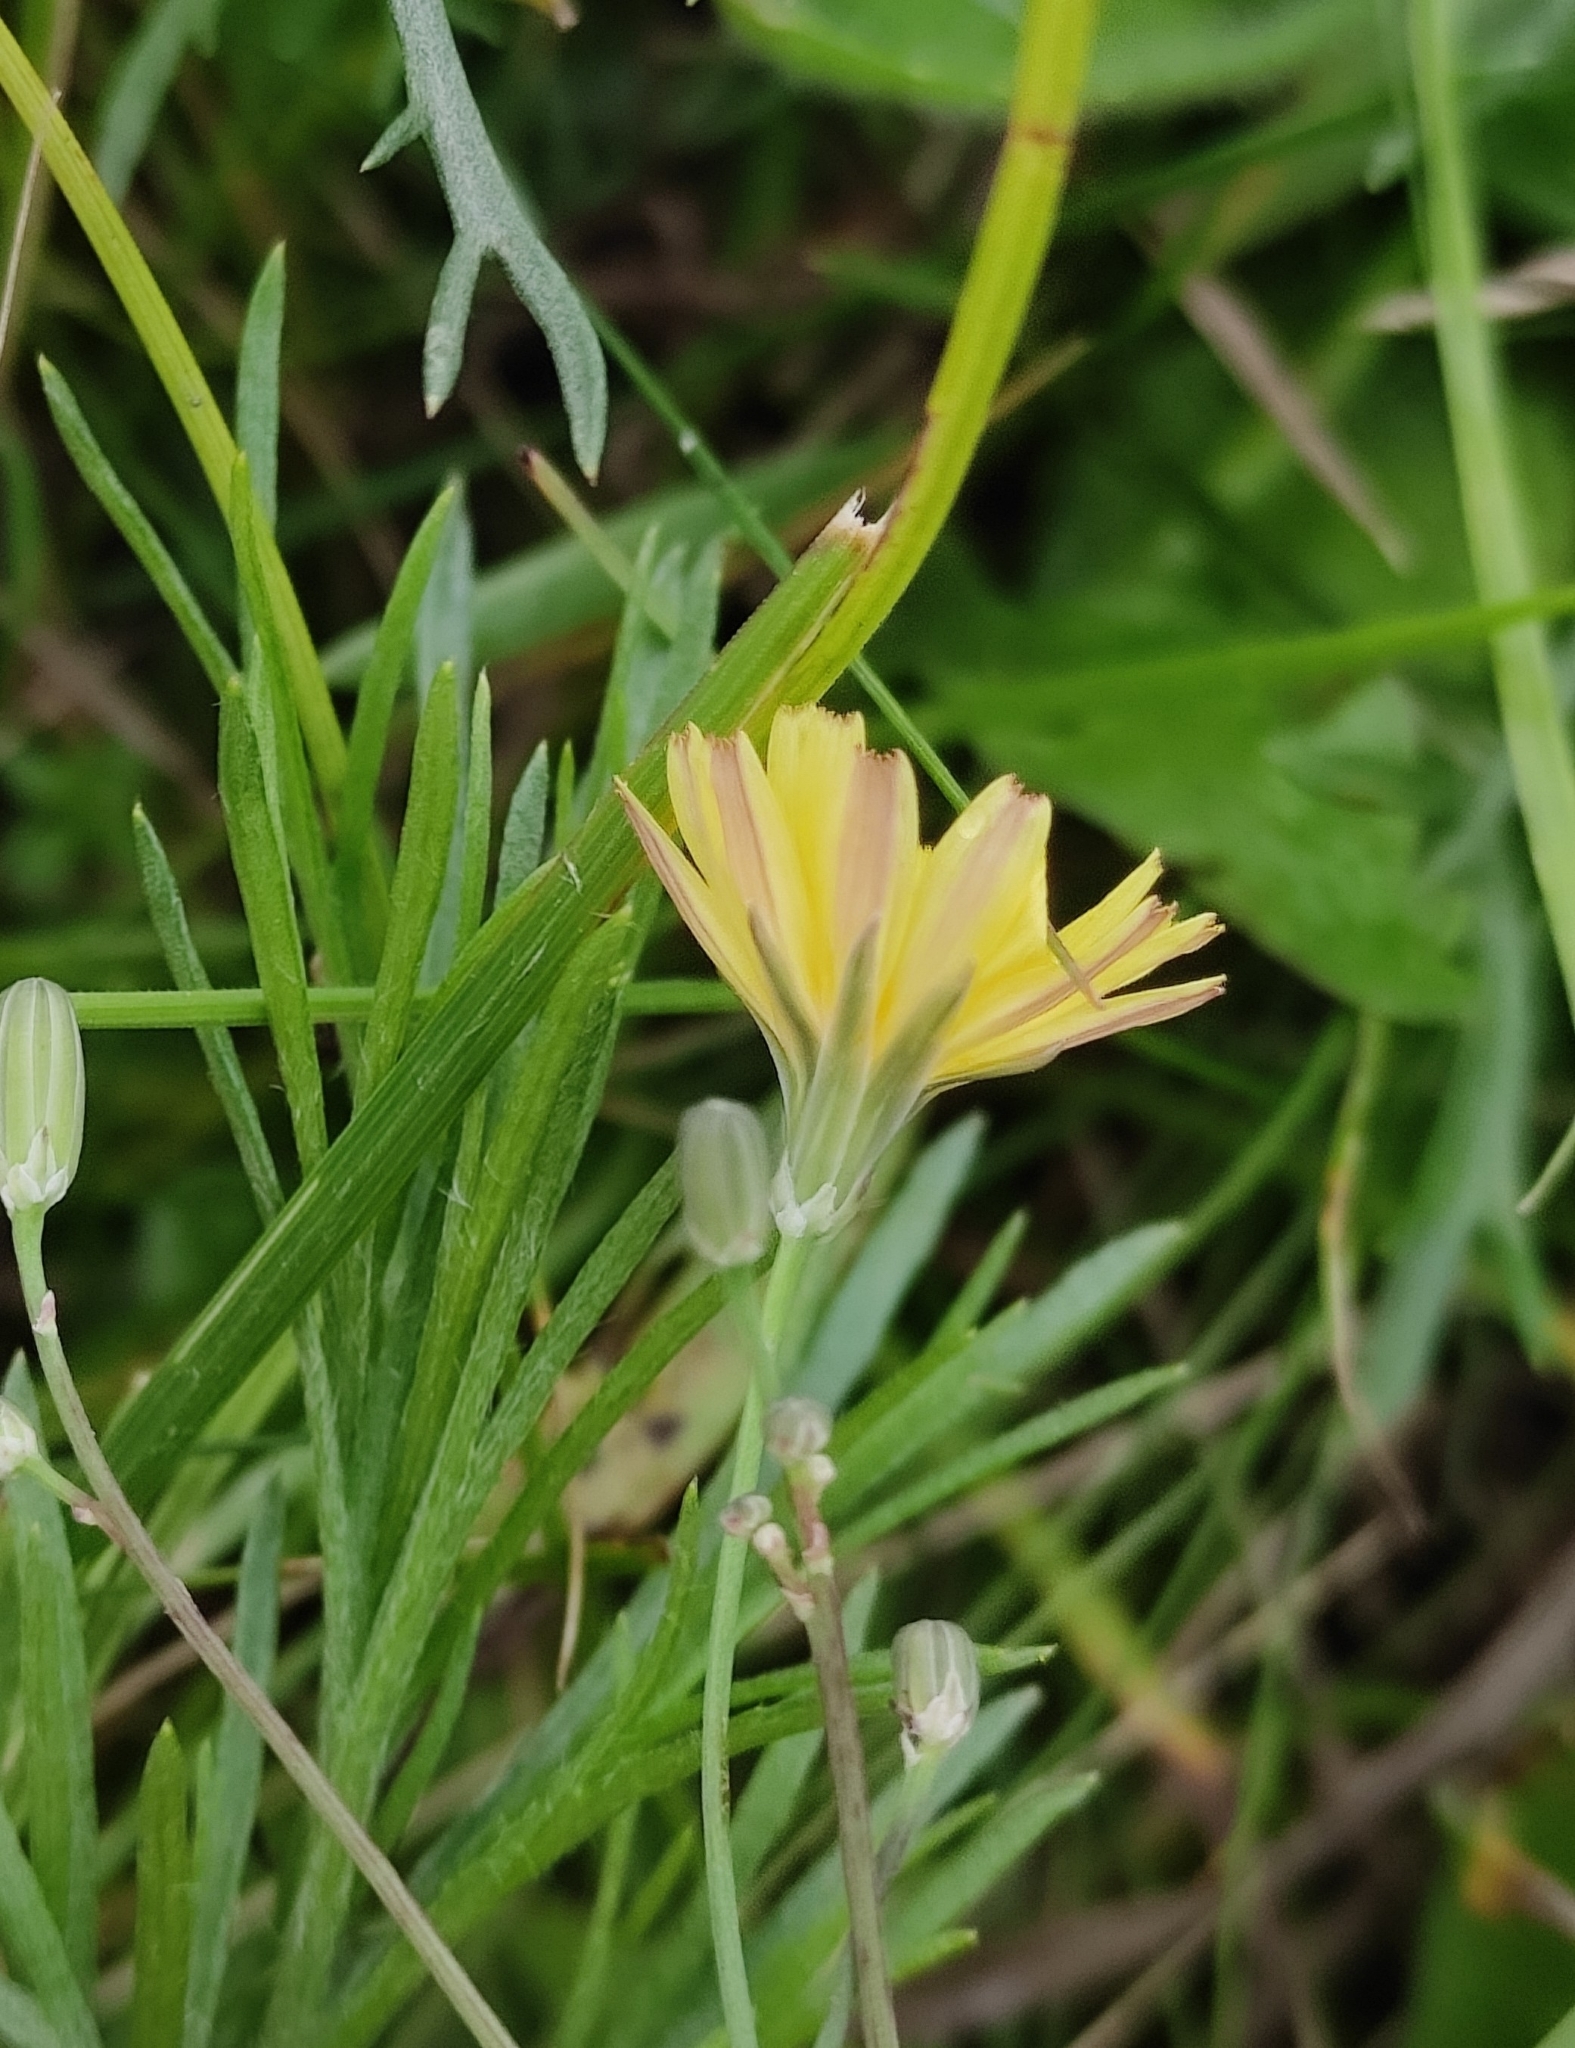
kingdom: Plantae
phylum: Tracheophyta
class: Magnoliopsida
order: Asterales
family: Asteraceae
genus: Ixeris
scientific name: Ixeris chinensis
